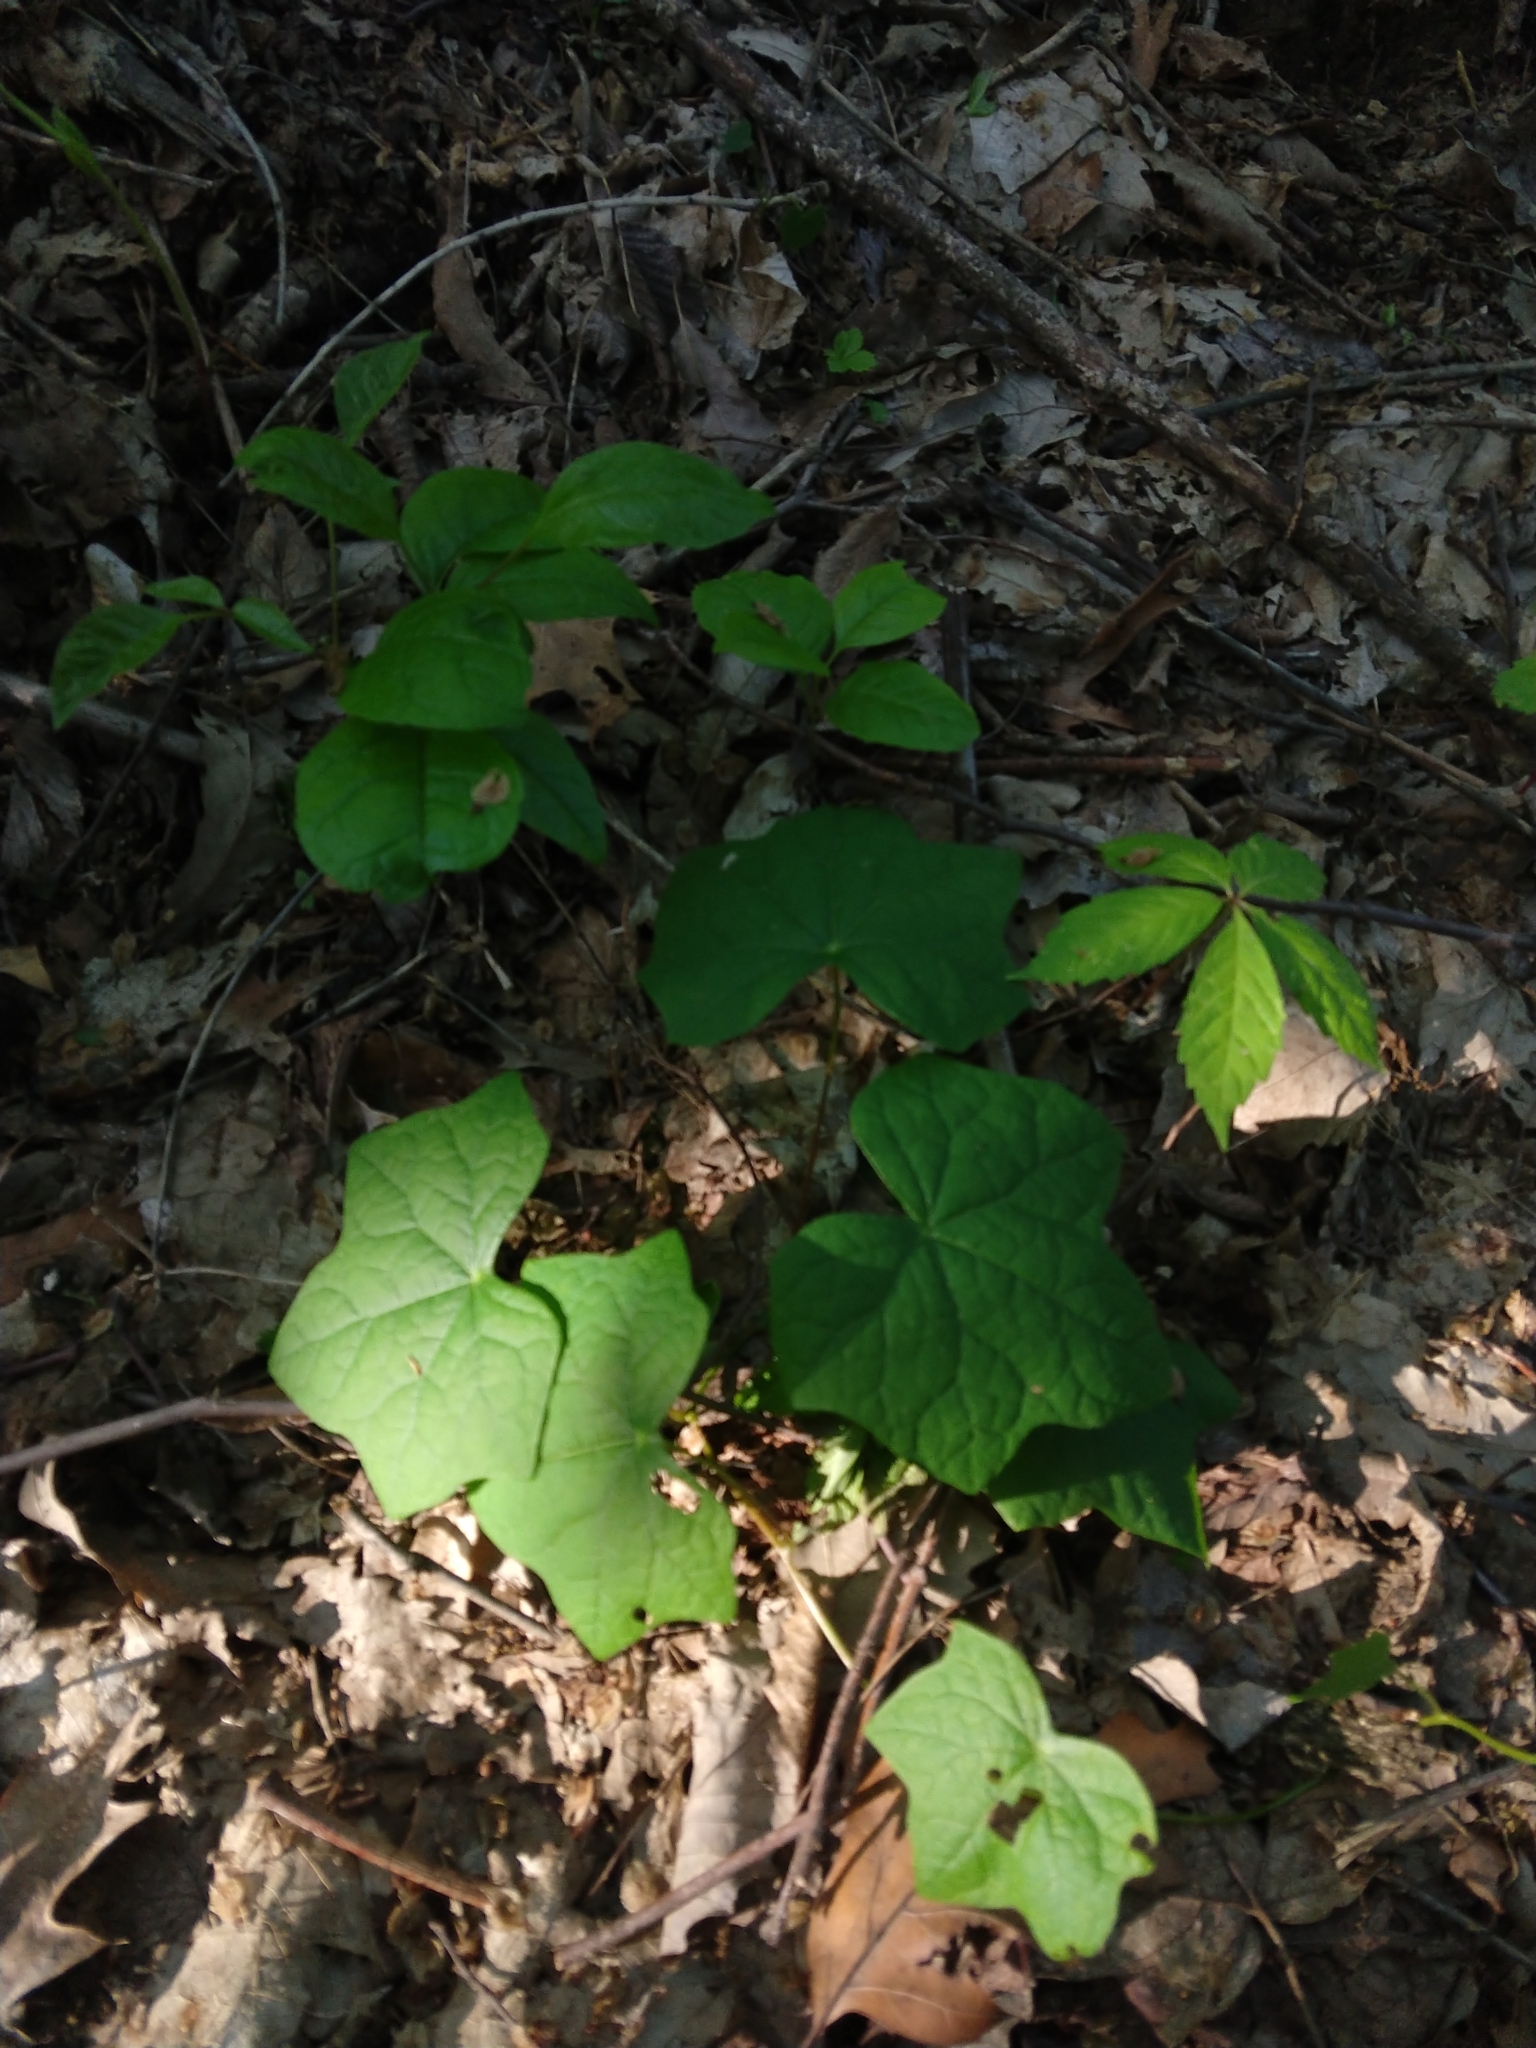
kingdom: Plantae
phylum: Tracheophyta
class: Magnoliopsida
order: Ranunculales
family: Menispermaceae
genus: Menispermum
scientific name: Menispermum canadense
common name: Moonseed
